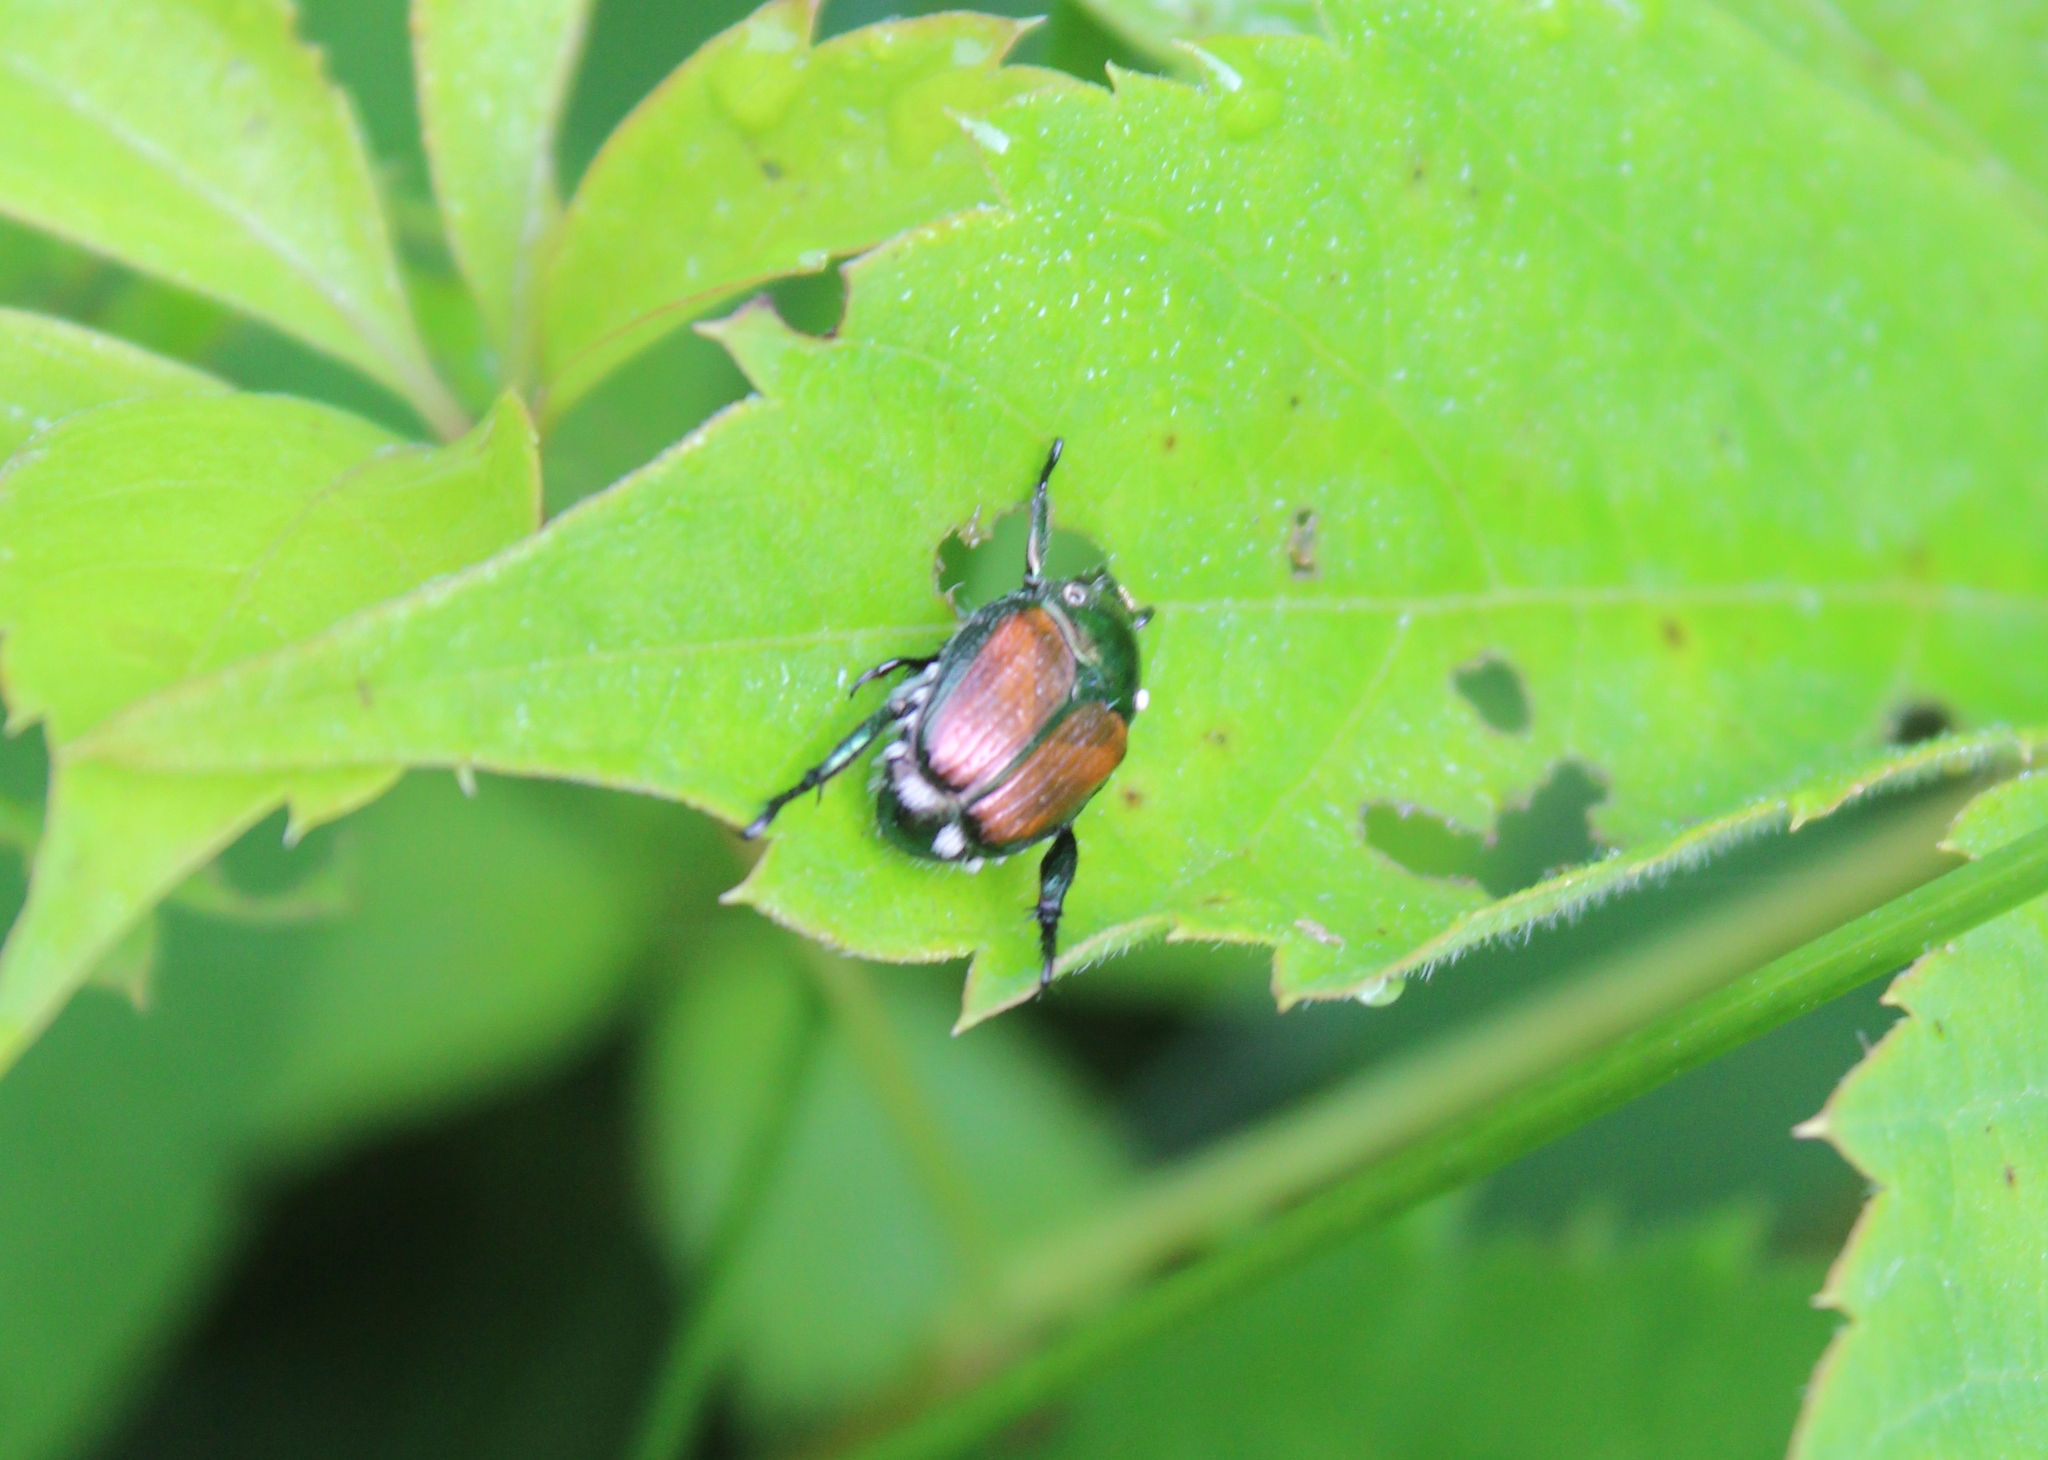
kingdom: Animalia
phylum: Arthropoda
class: Insecta
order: Coleoptera
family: Scarabaeidae
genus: Popillia
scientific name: Popillia japonica
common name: Japanese beetle
